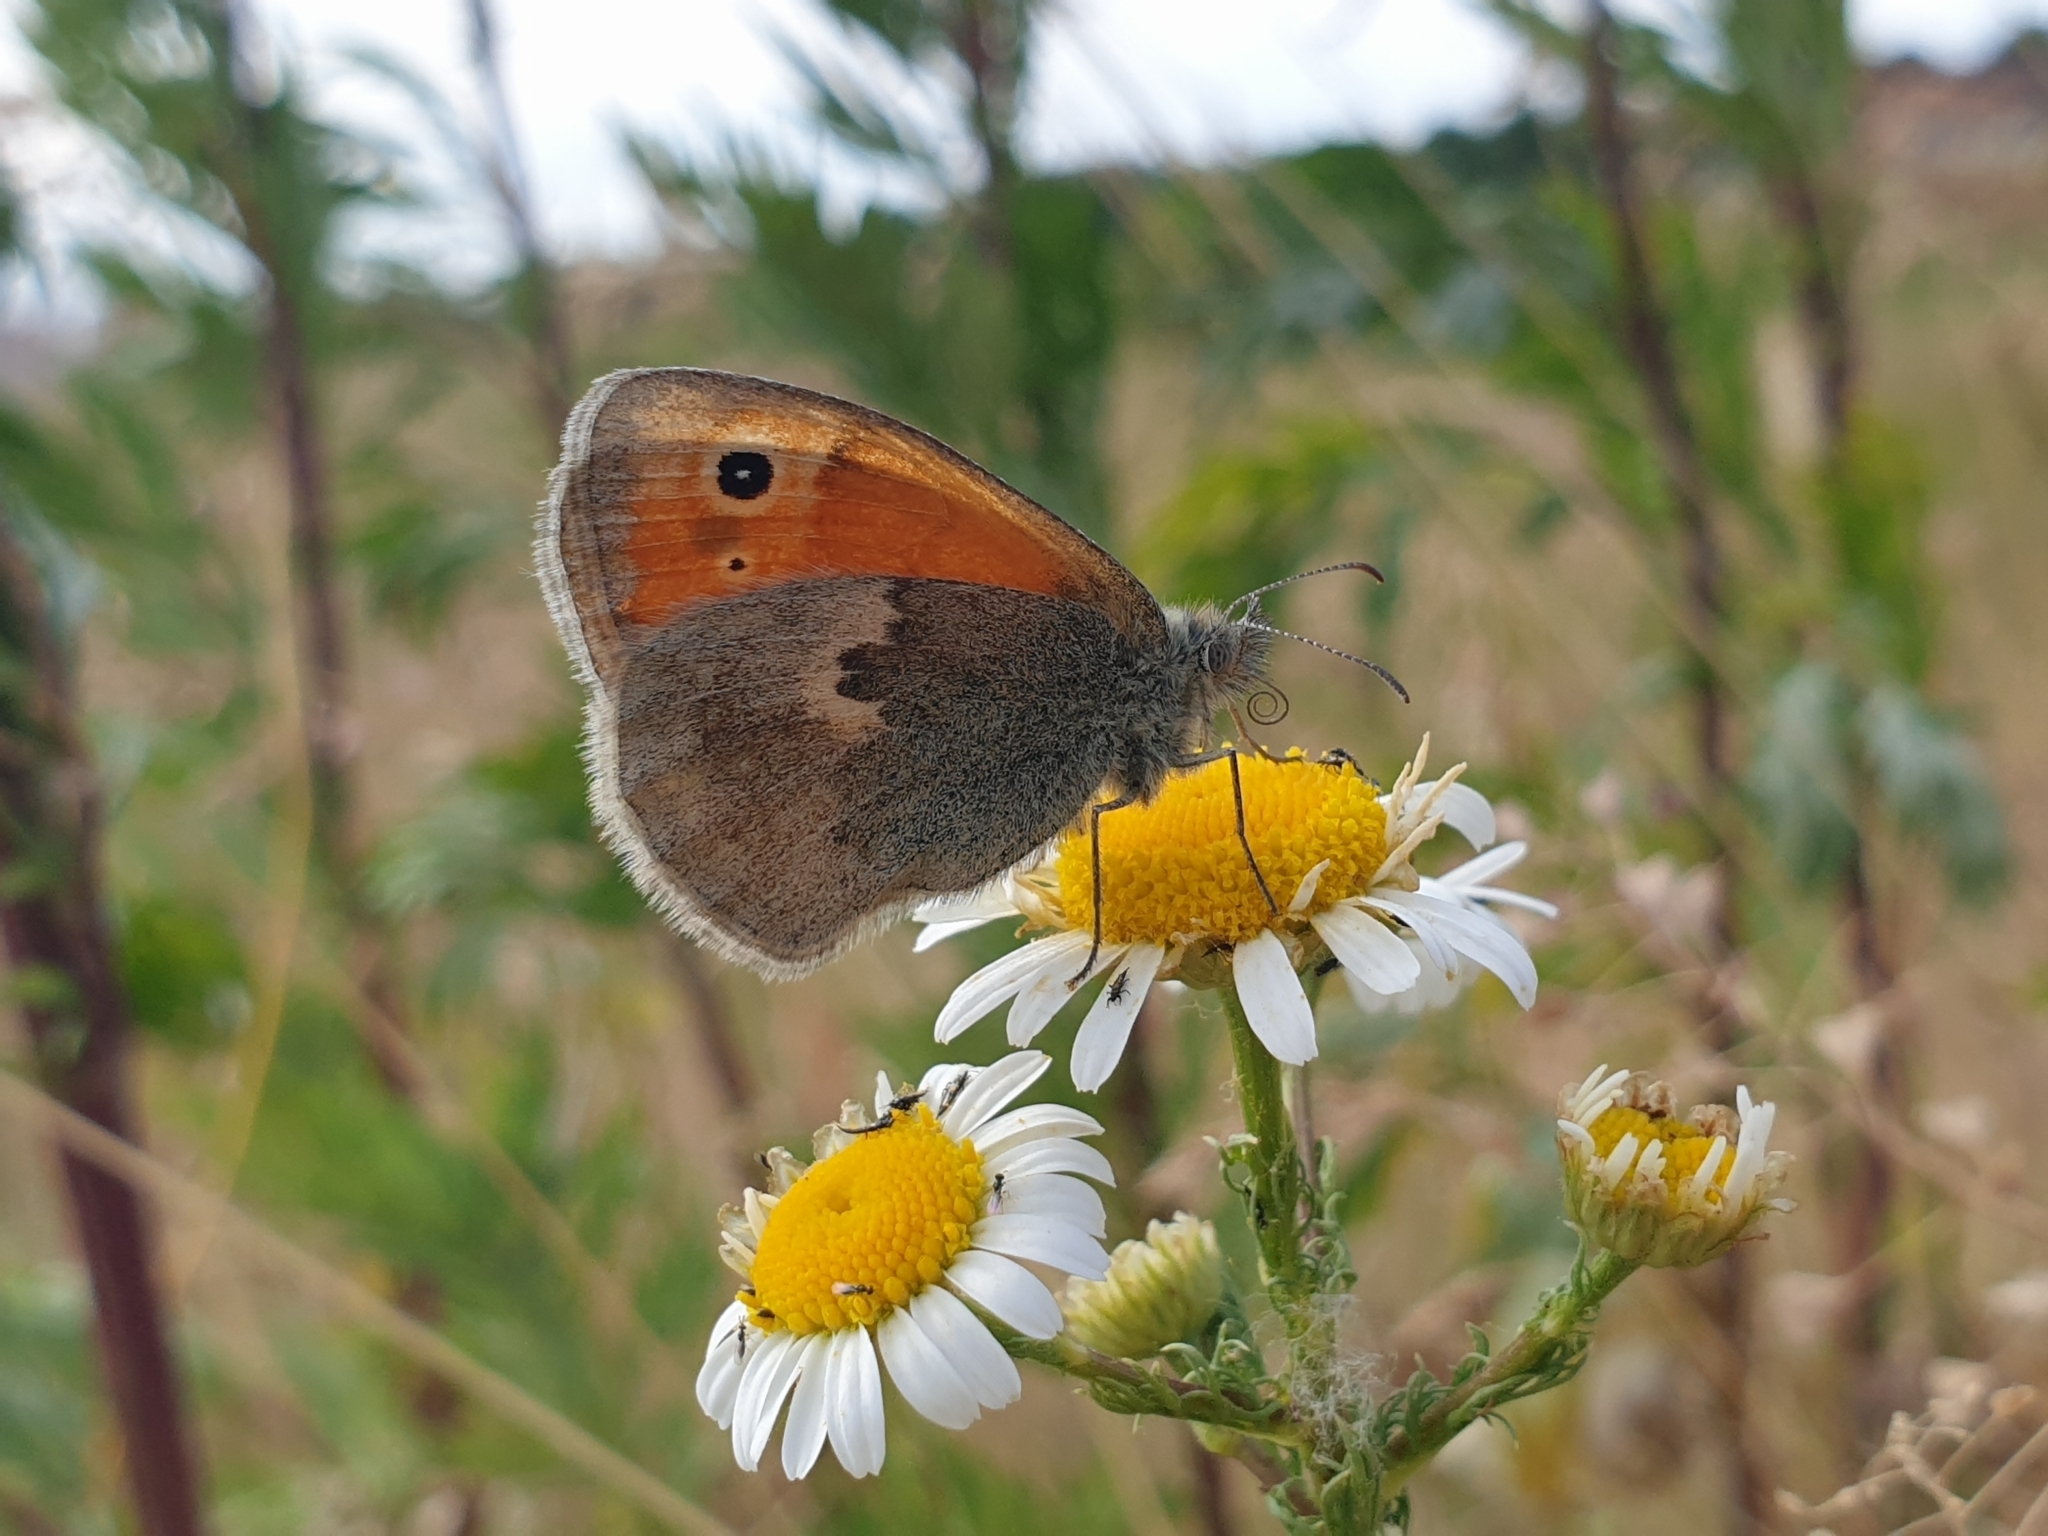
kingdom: Animalia
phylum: Arthropoda
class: Insecta
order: Lepidoptera
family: Nymphalidae
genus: Coenonympha
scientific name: Coenonympha pamphilus
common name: Small heath
